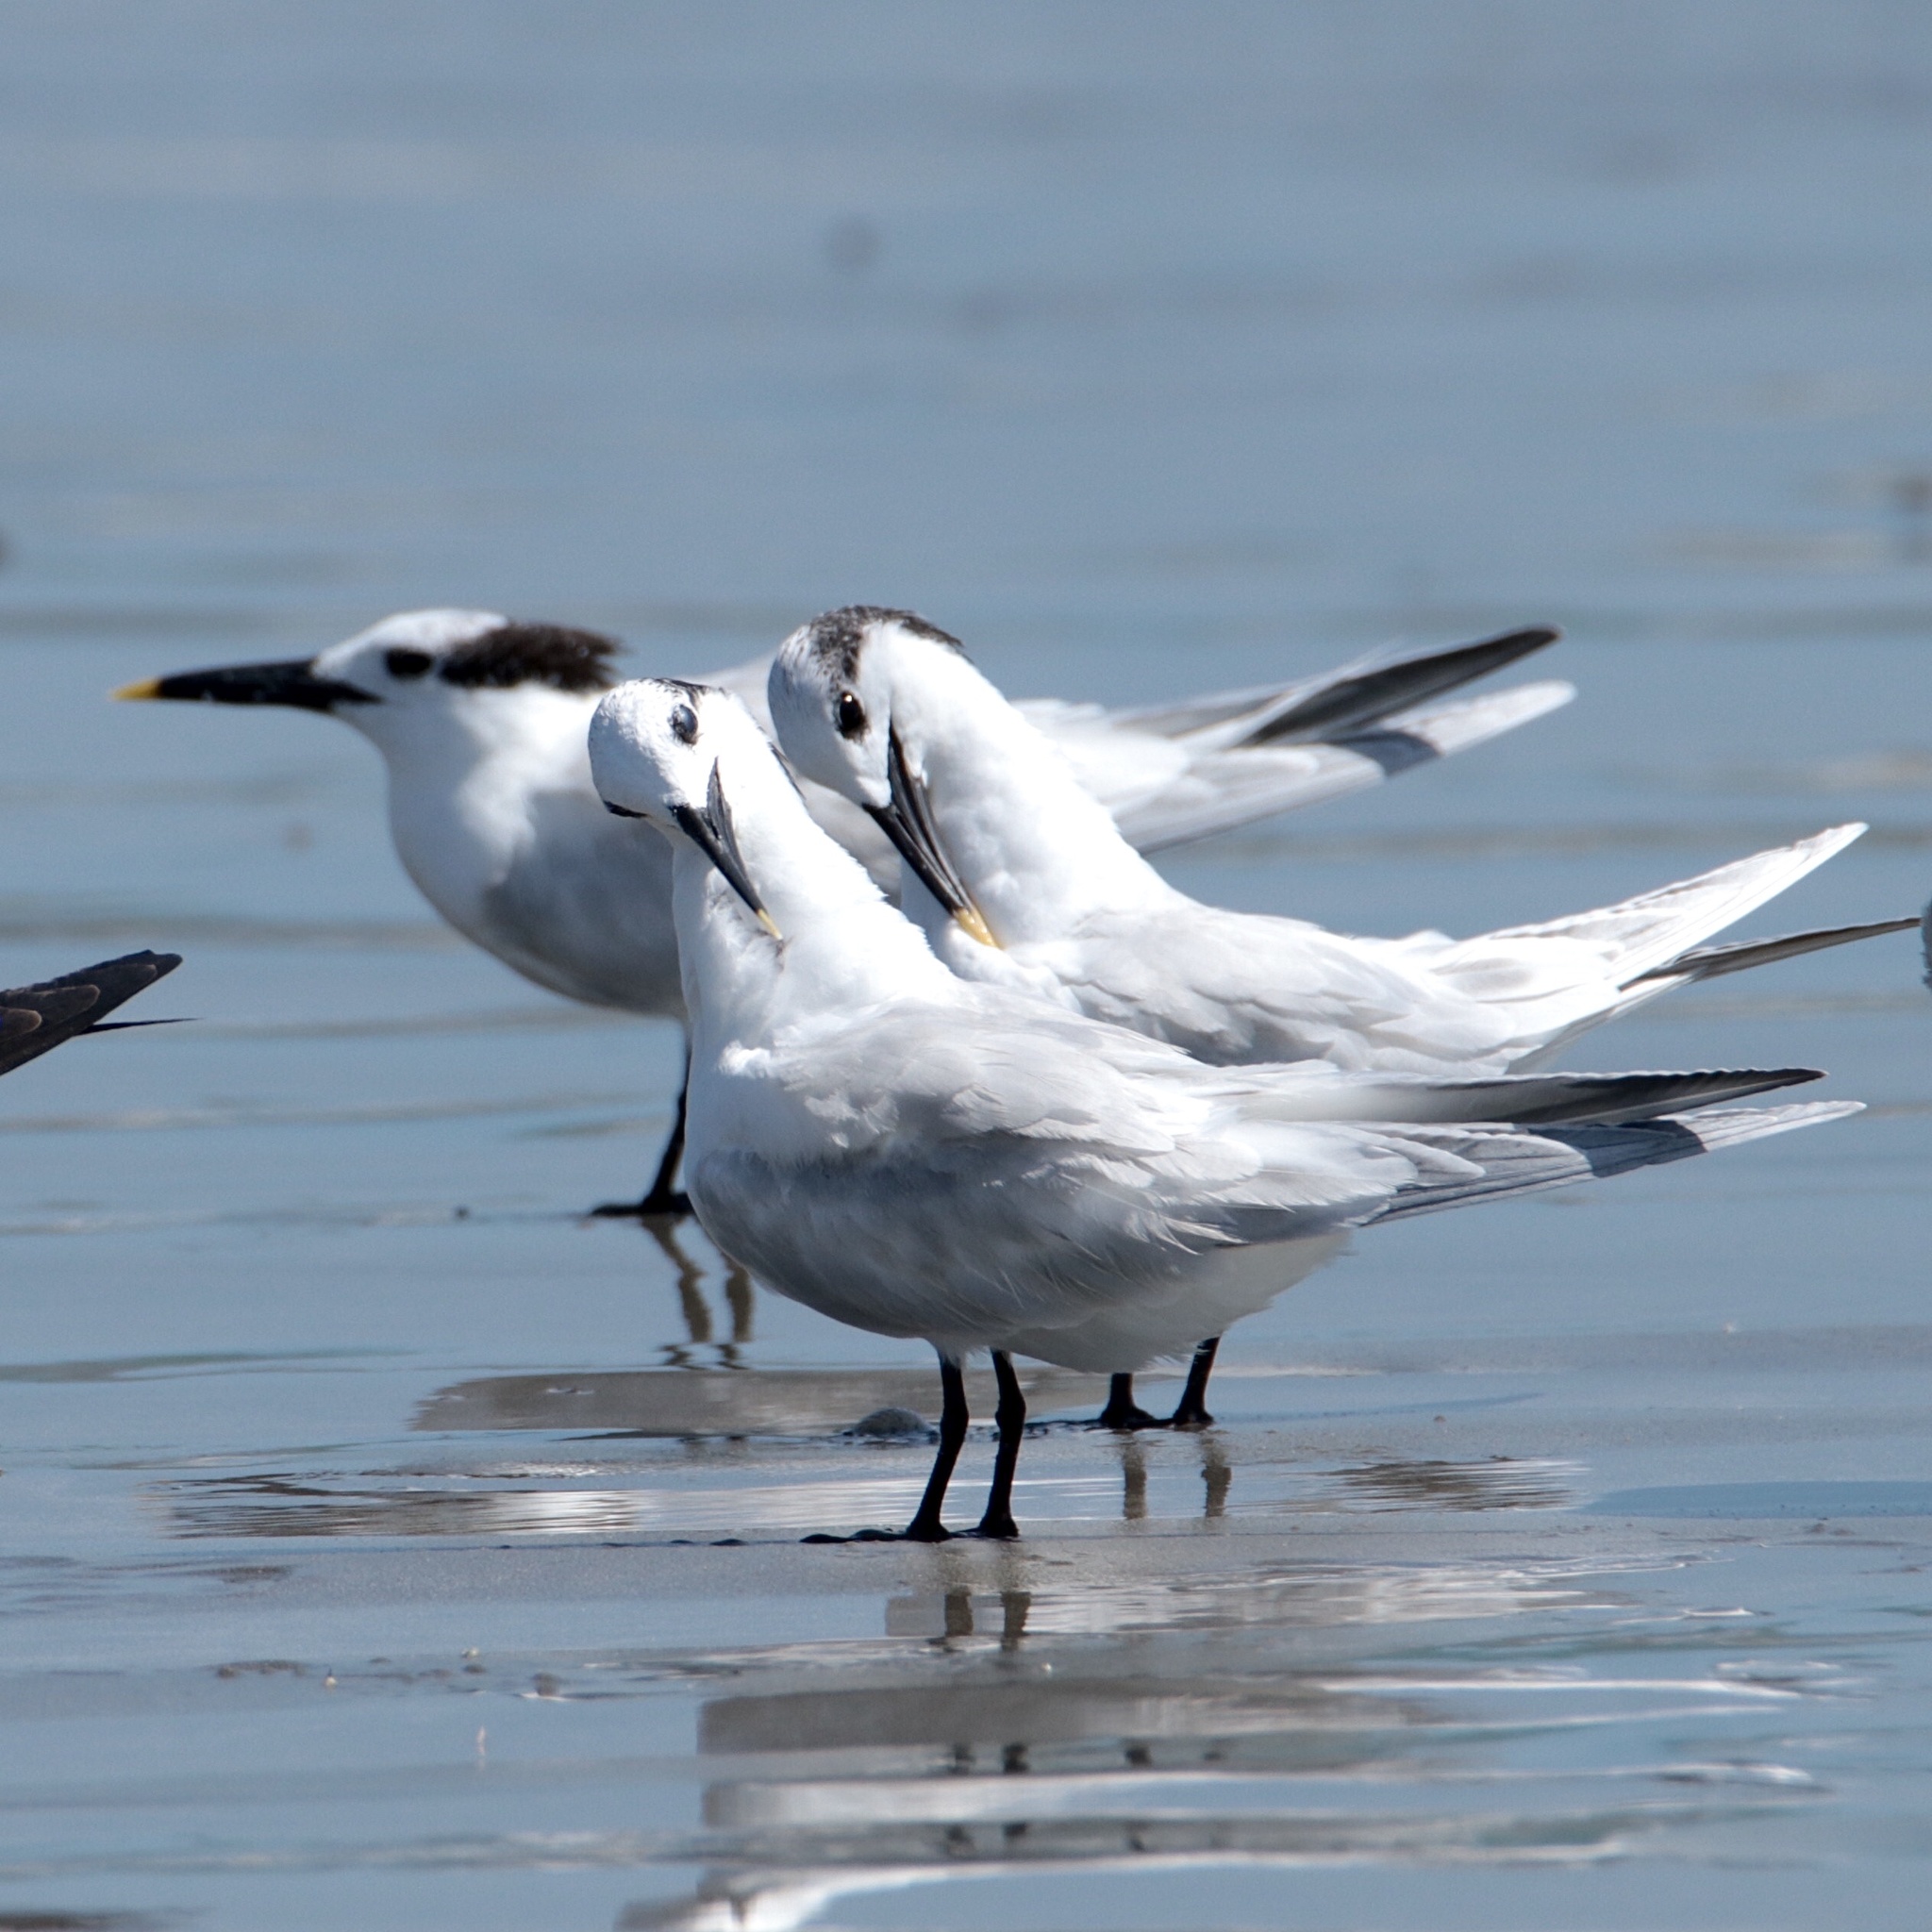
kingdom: Animalia
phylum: Chordata
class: Aves
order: Charadriiformes
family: Laridae
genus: Thalasseus
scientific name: Thalasseus sandvicensis
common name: Sandwich tern
